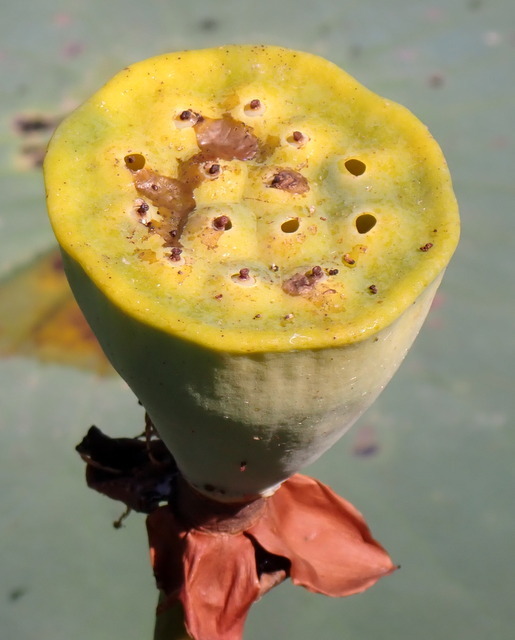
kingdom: Plantae
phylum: Tracheophyta
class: Magnoliopsida
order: Proteales
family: Nelumbonaceae
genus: Nelumbo
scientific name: Nelumbo lutea
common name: American lotus
